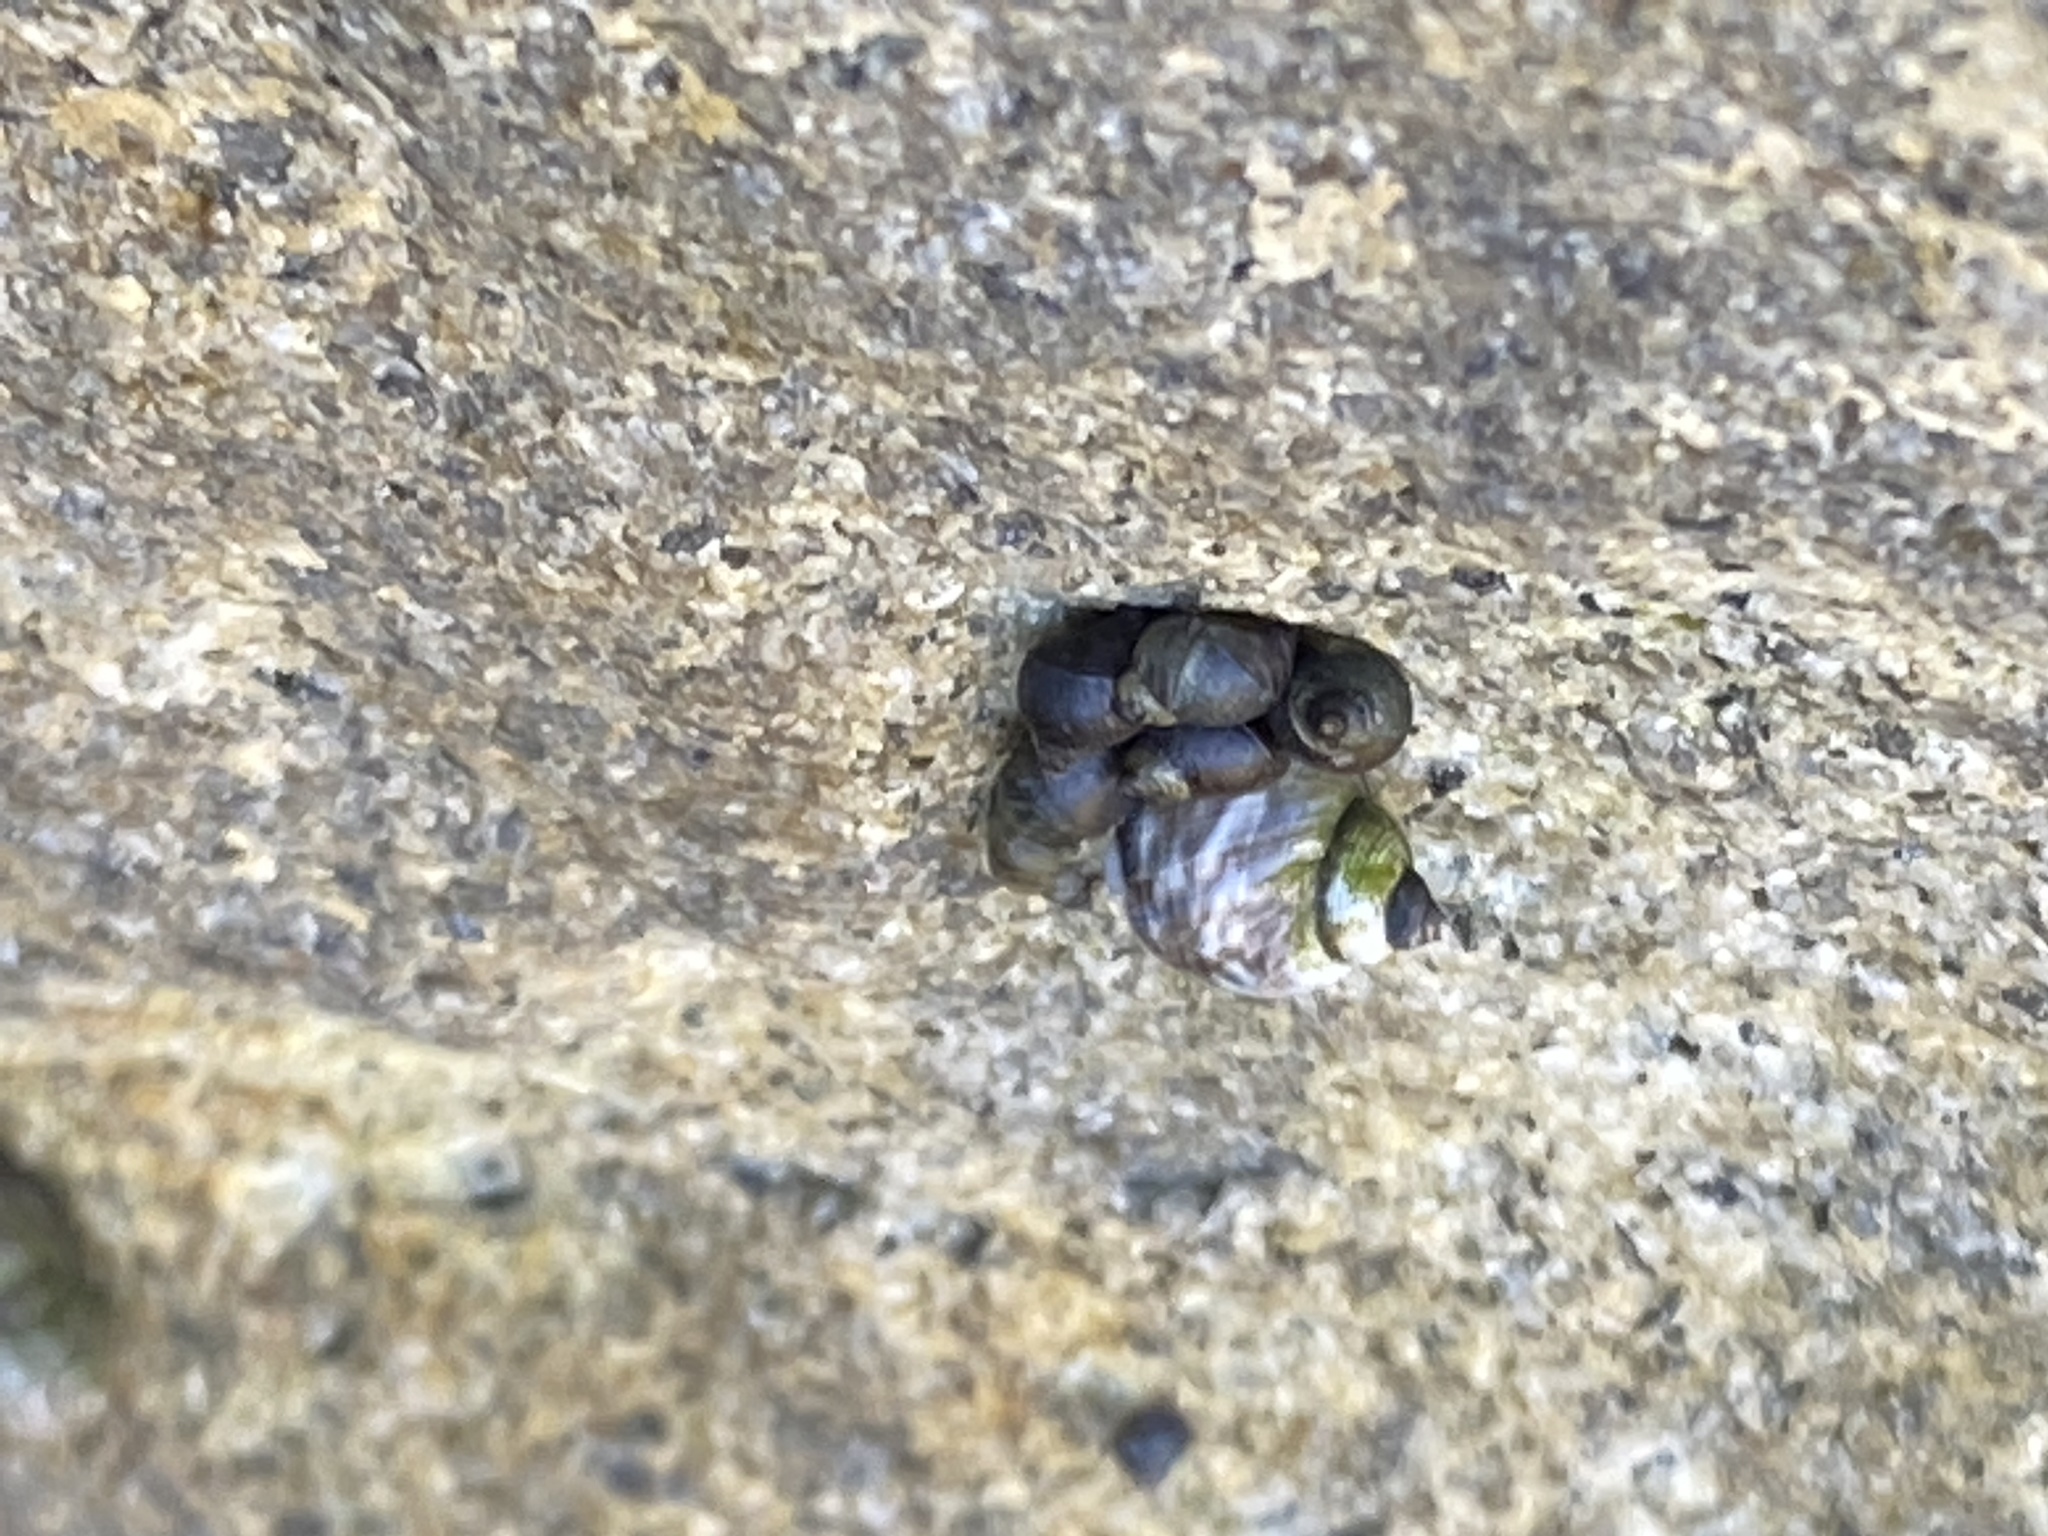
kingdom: Animalia
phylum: Mollusca
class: Gastropoda
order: Littorinimorpha
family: Littorinidae
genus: Littorina
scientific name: Littorina keenae
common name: Eroded periwinkle
